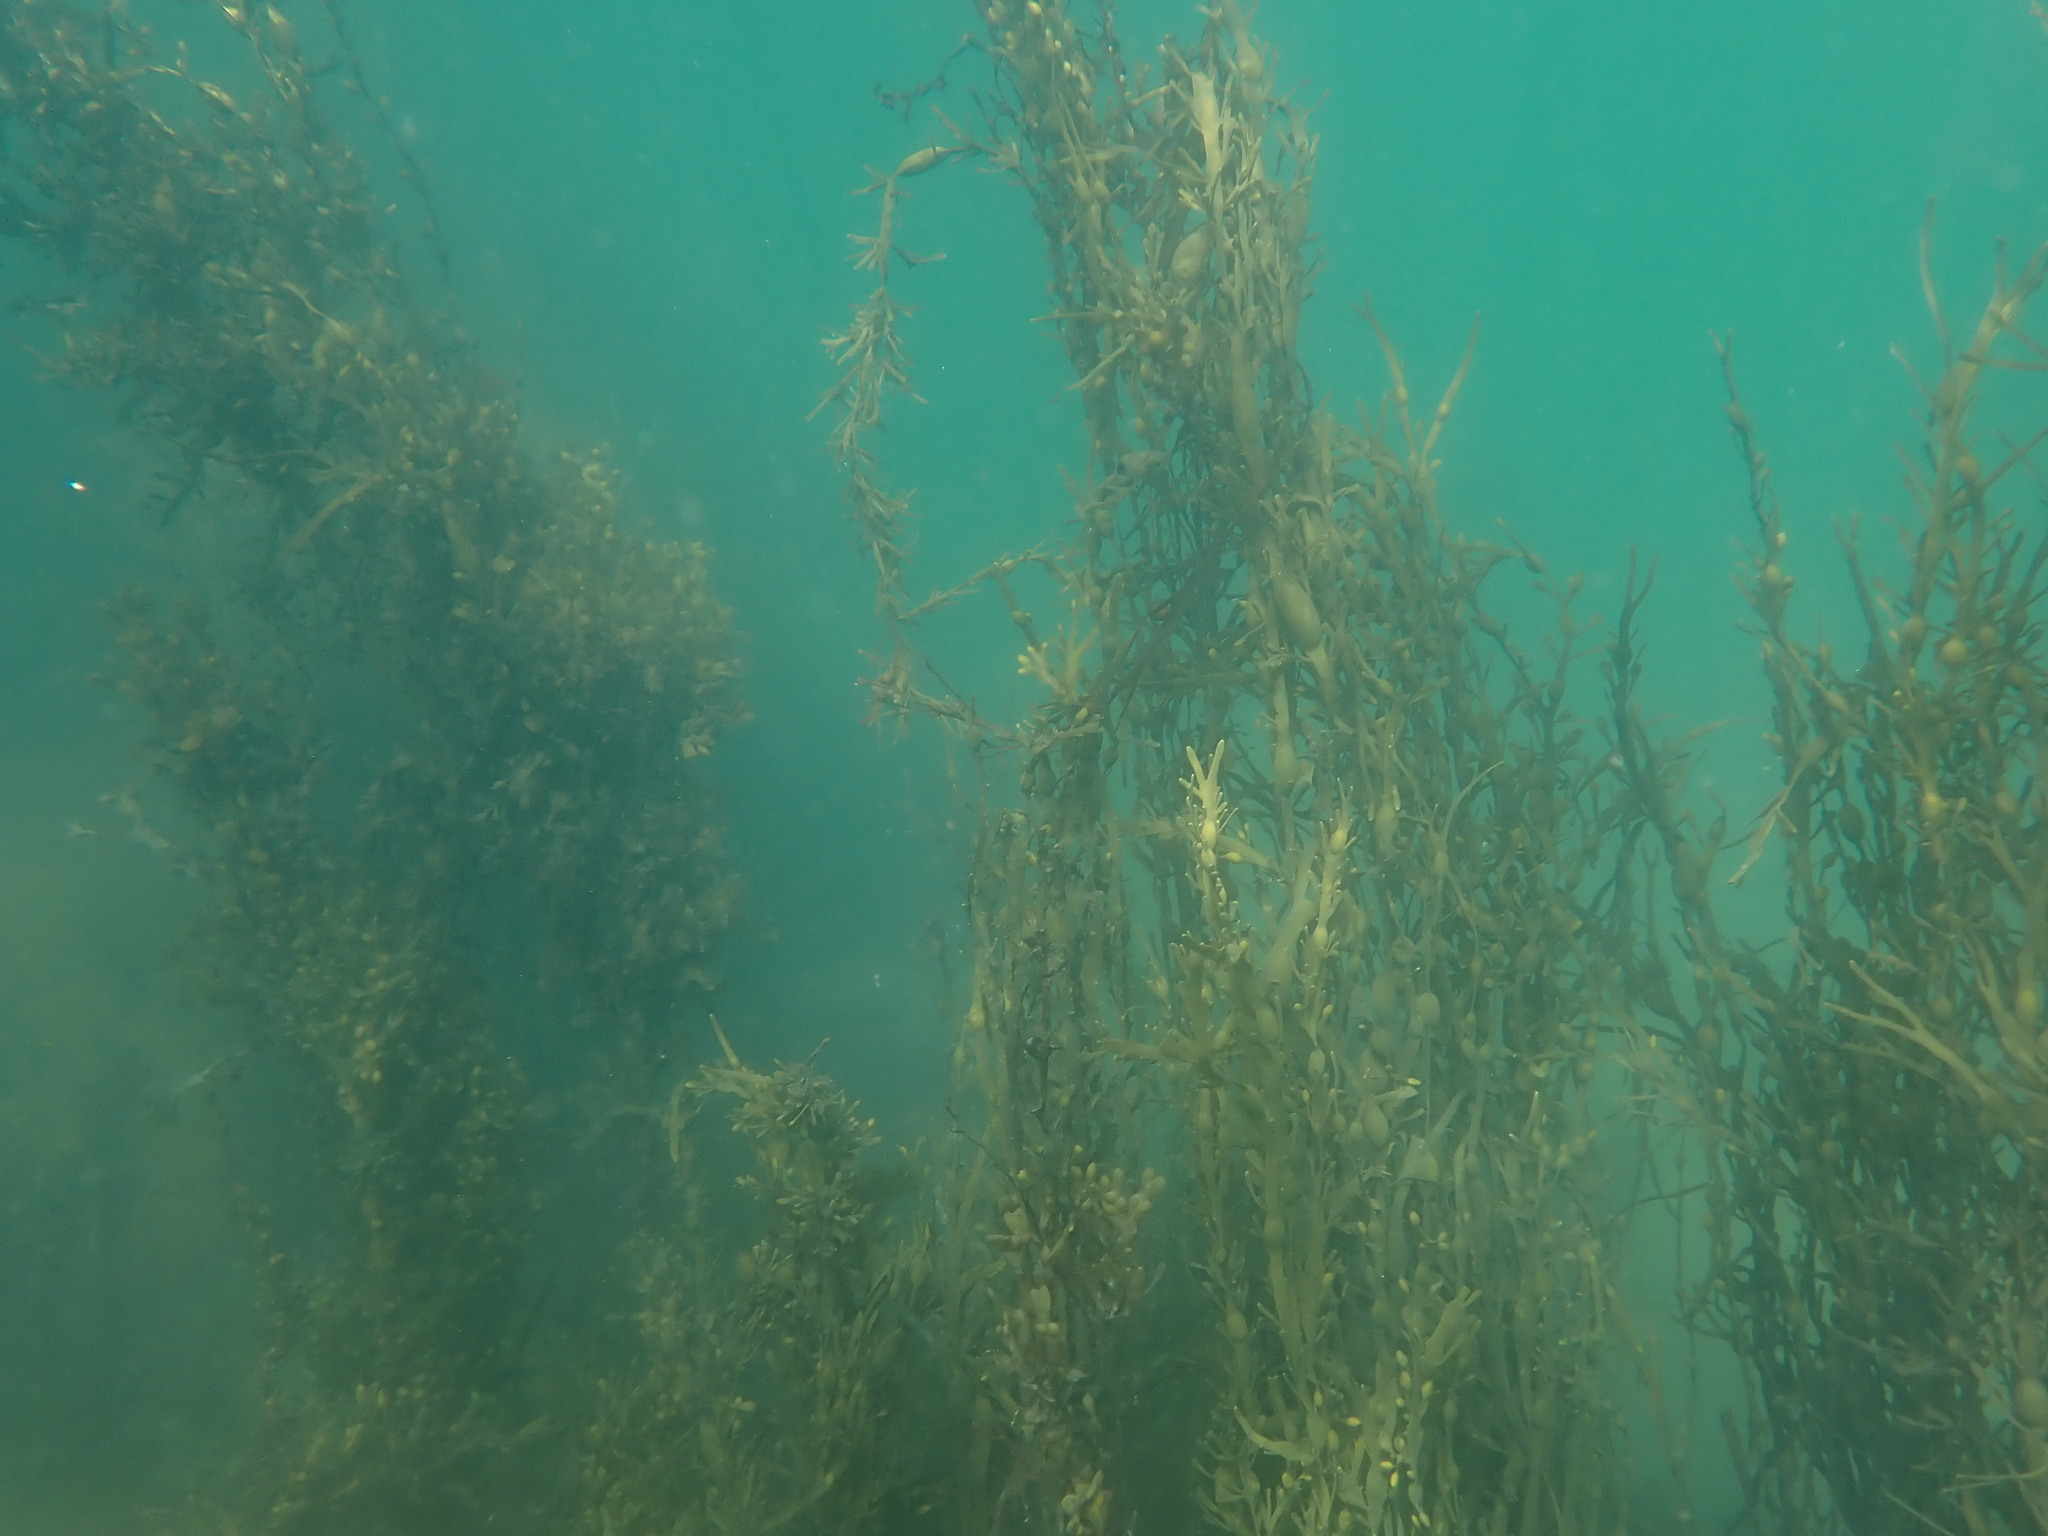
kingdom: Chromista
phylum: Ochrophyta
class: Phaeophyceae
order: Fucales
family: Fucaceae
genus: Ascophyllum
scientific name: Ascophyllum nodosum
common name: Knotted wrack
